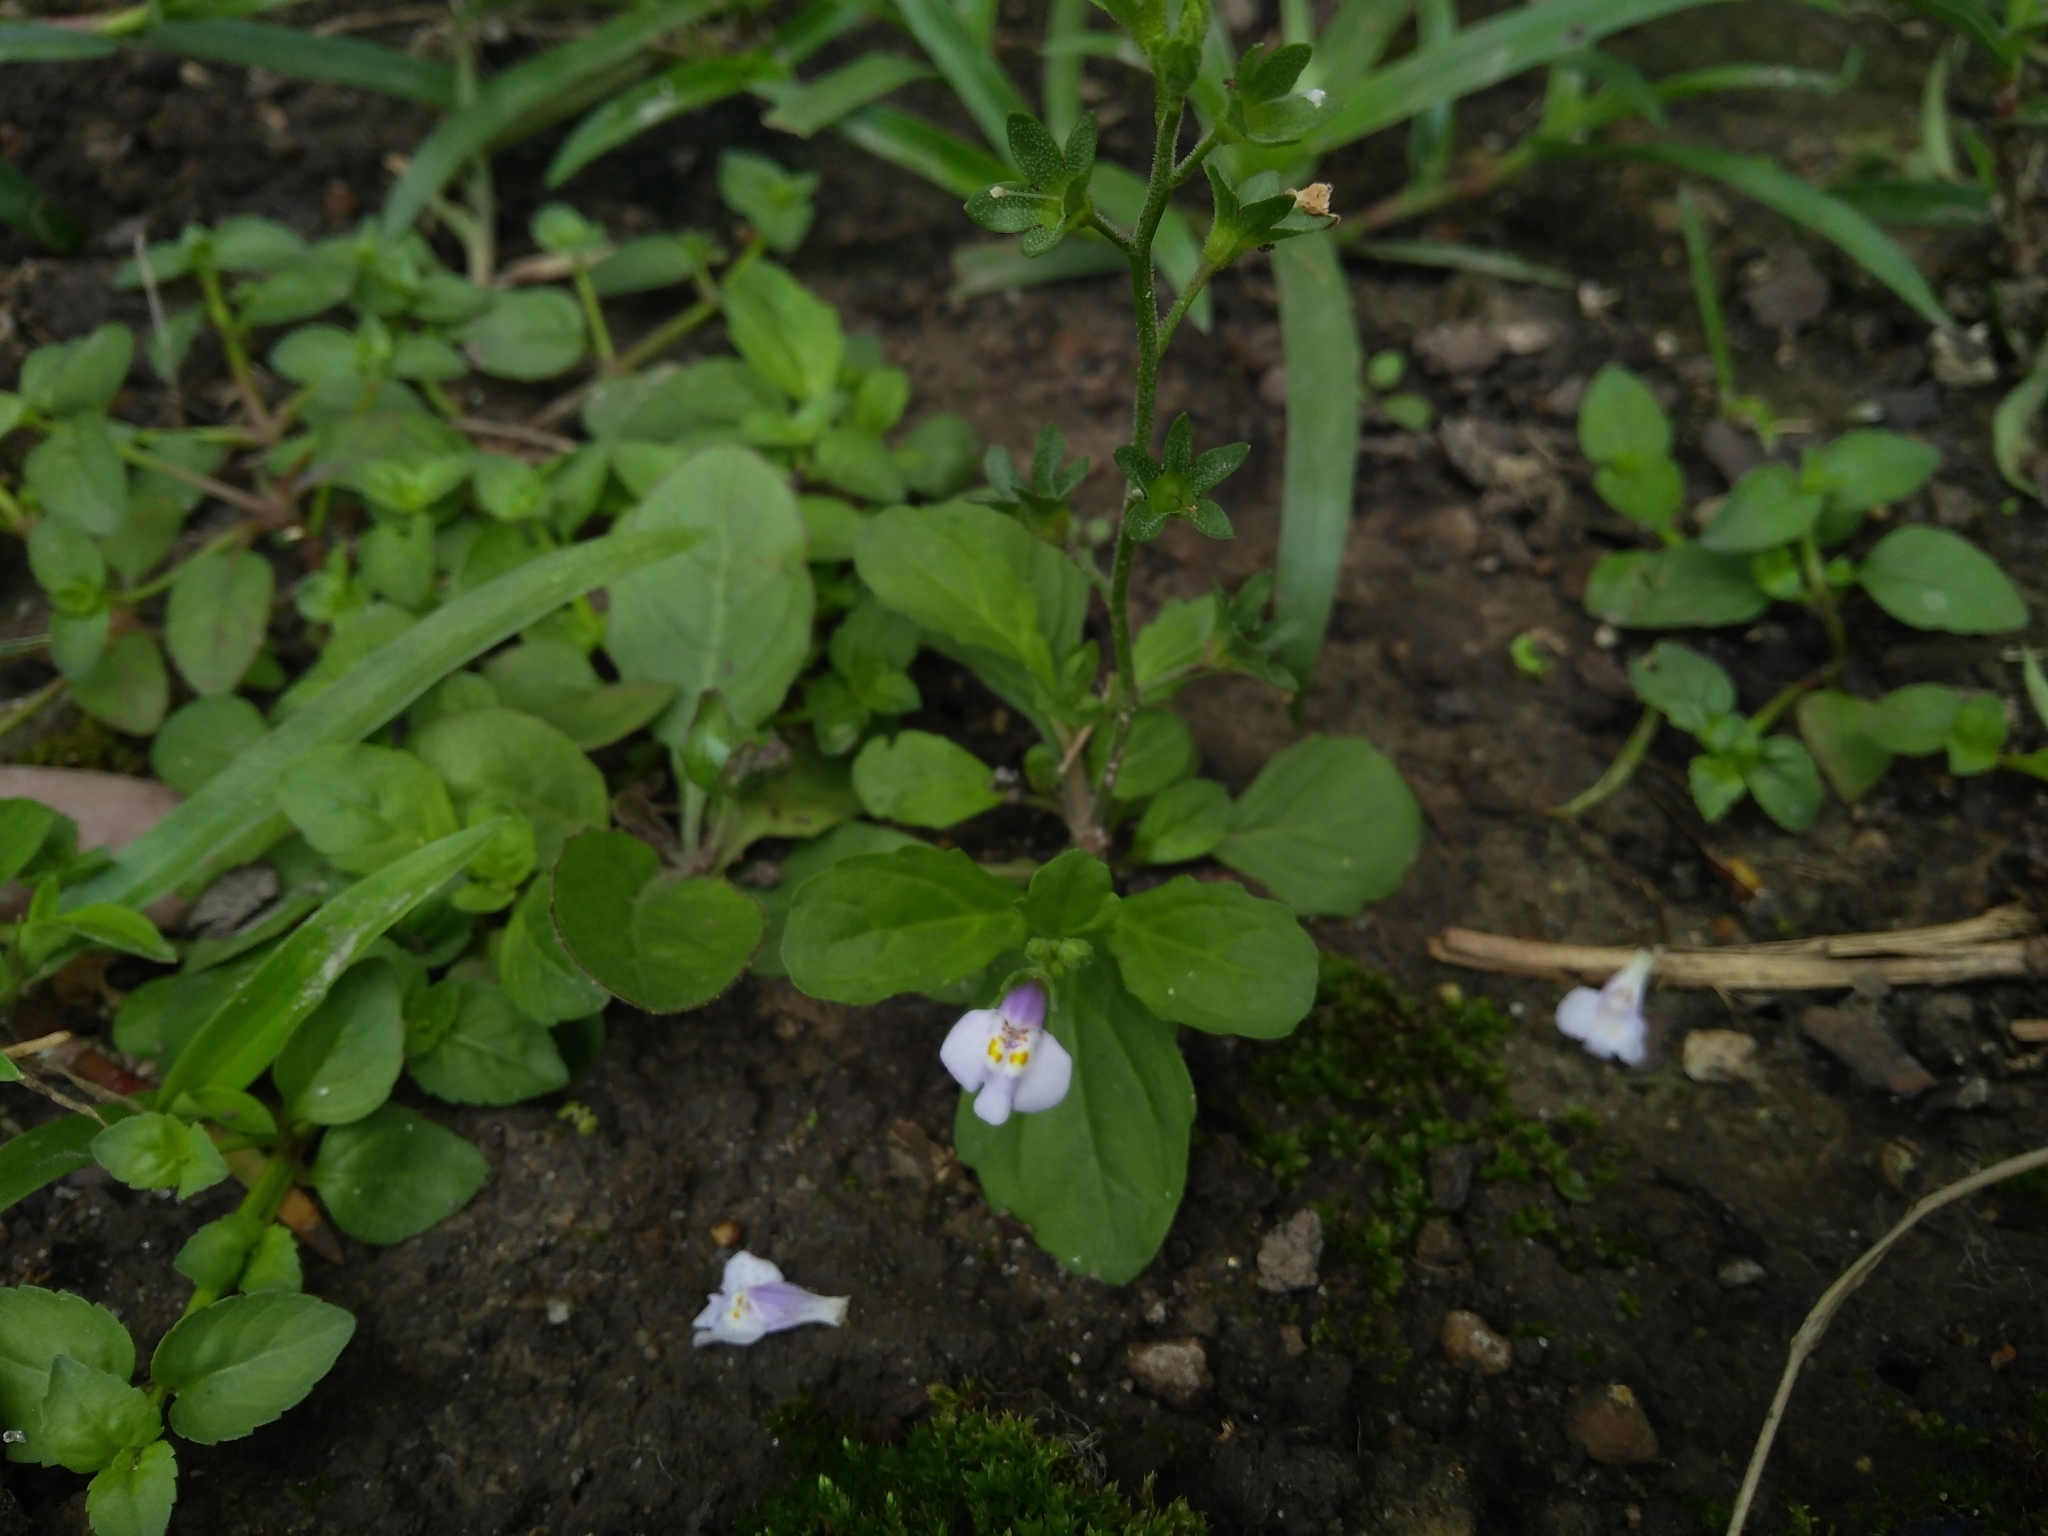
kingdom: Plantae
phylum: Tracheophyta
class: Magnoliopsida
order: Lamiales
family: Mazaceae
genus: Mazus
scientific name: Mazus pumilus
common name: Japanese mazus
